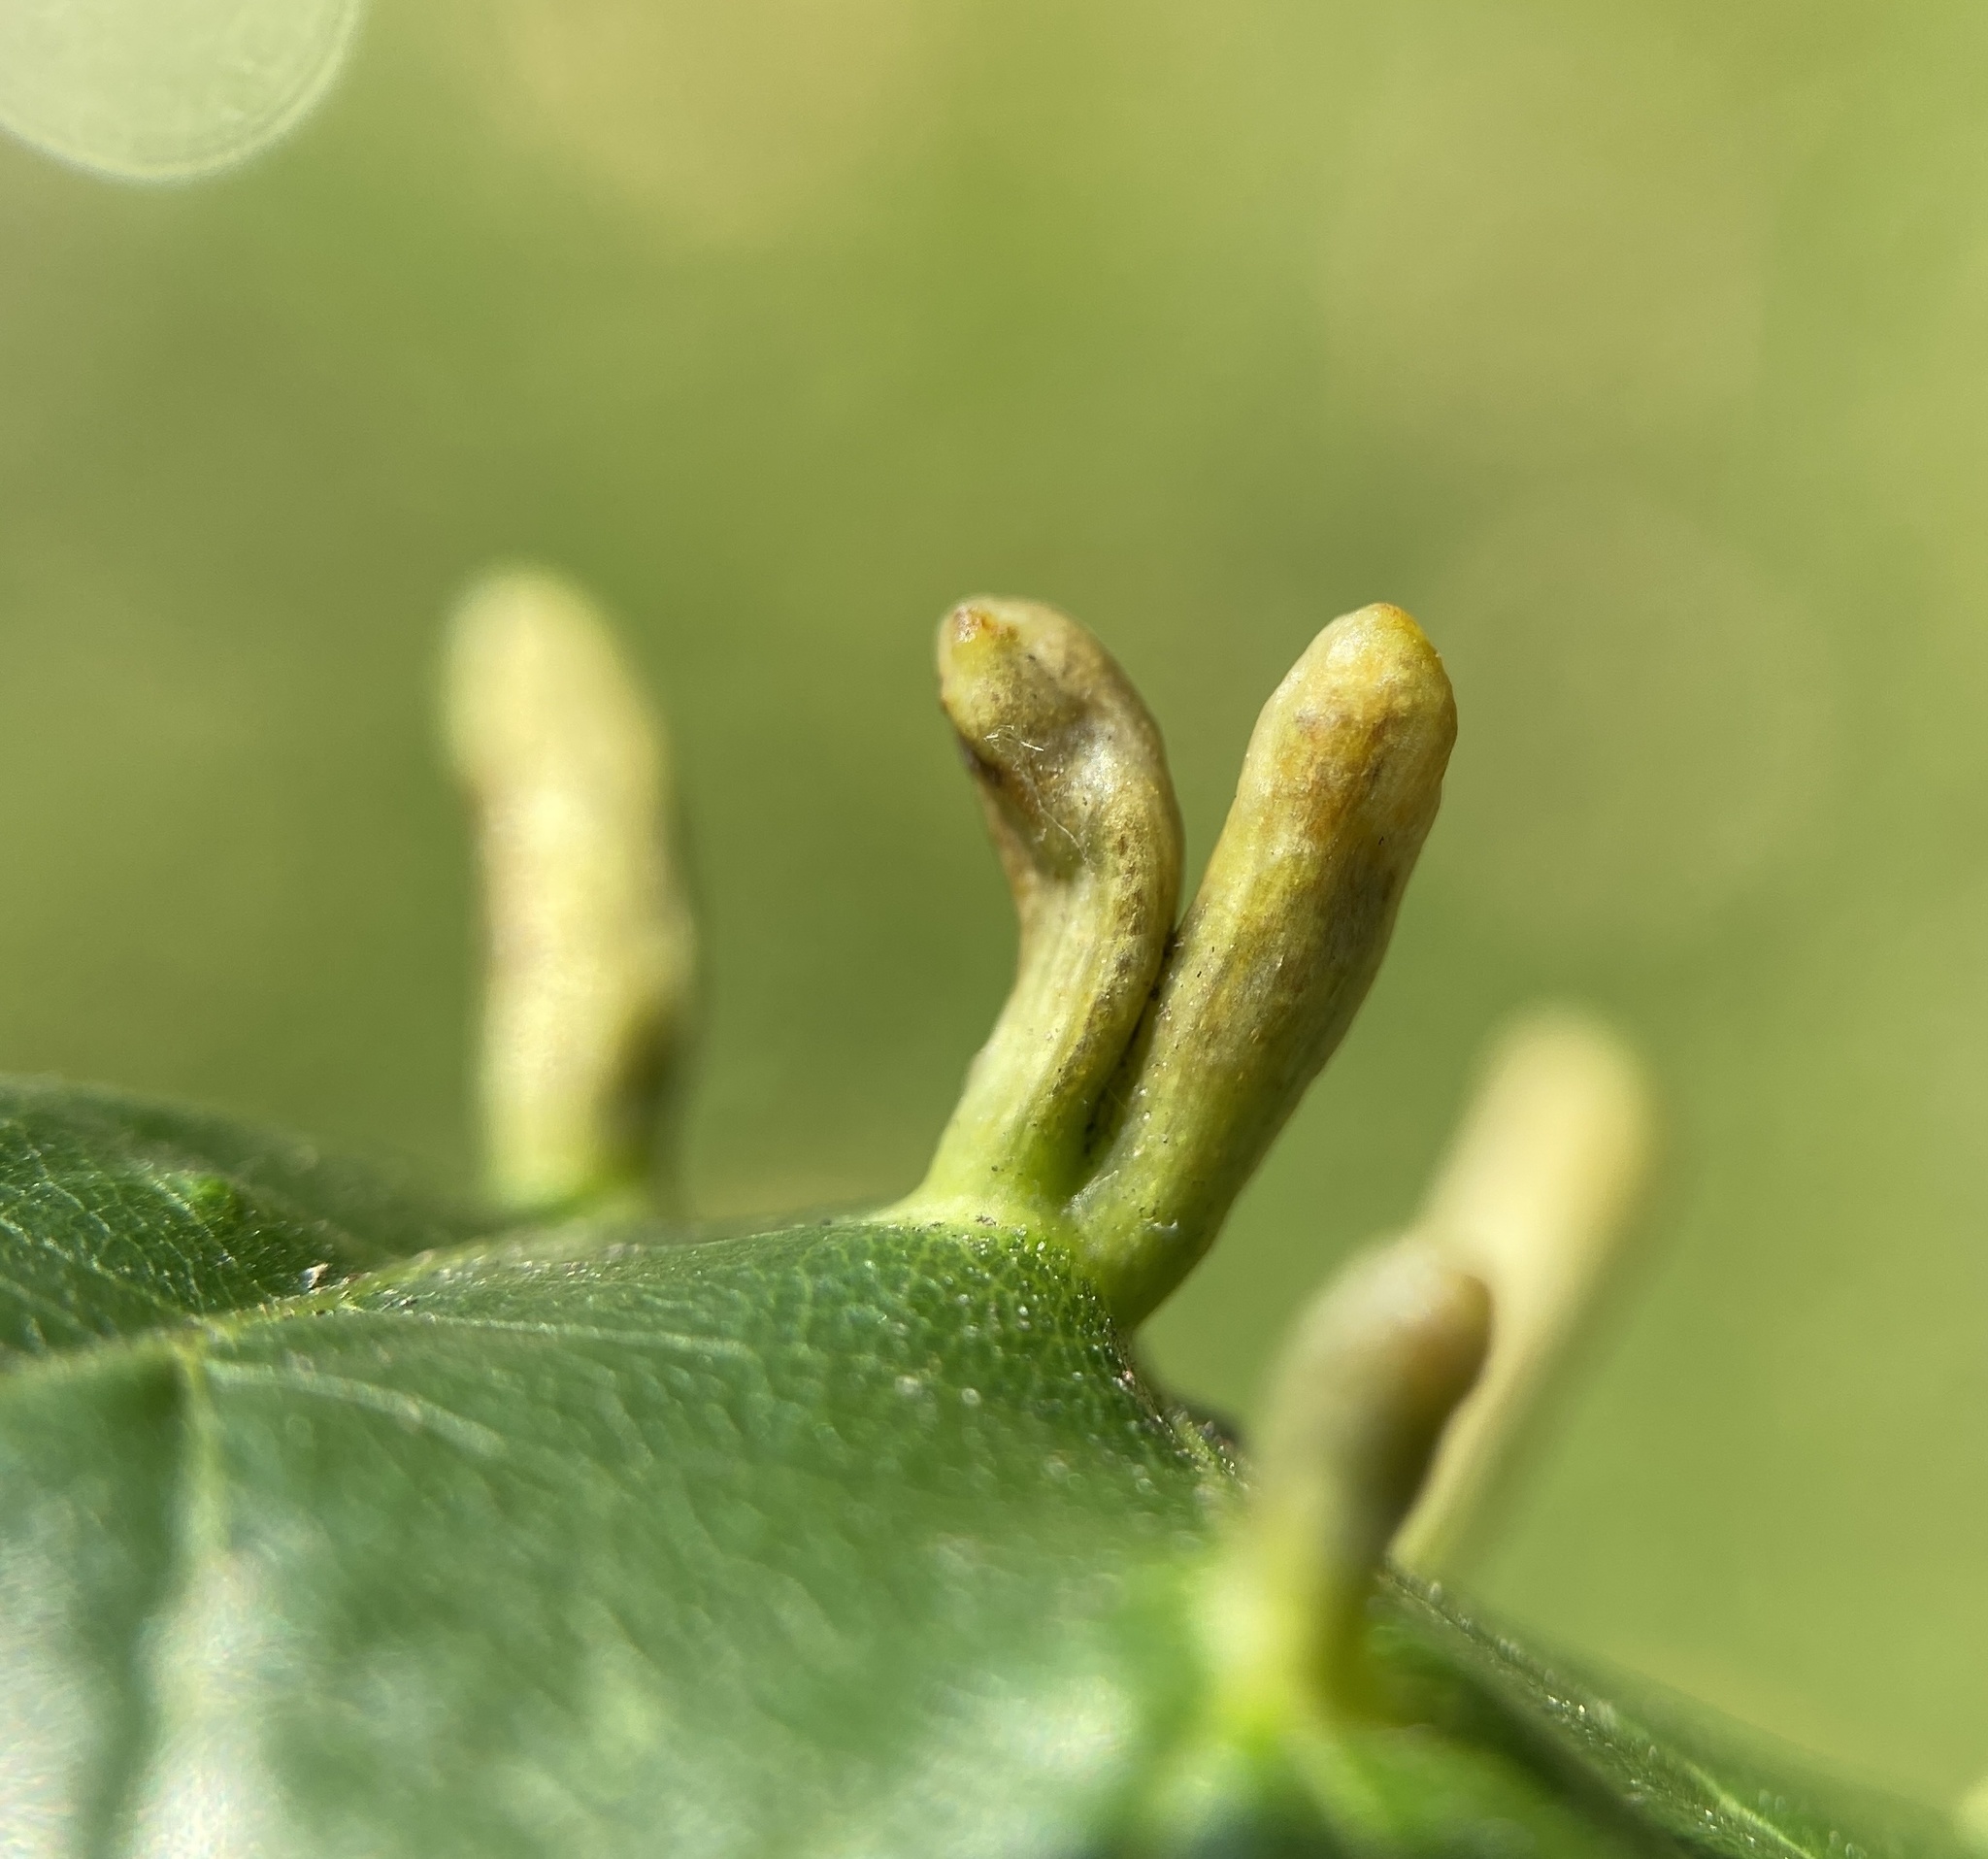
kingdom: Animalia
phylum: Arthropoda
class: Arachnida
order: Trombidiformes
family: Eriophyidae
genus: Eriophyes
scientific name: Eriophyes tiliae
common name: Red nail gall mite
